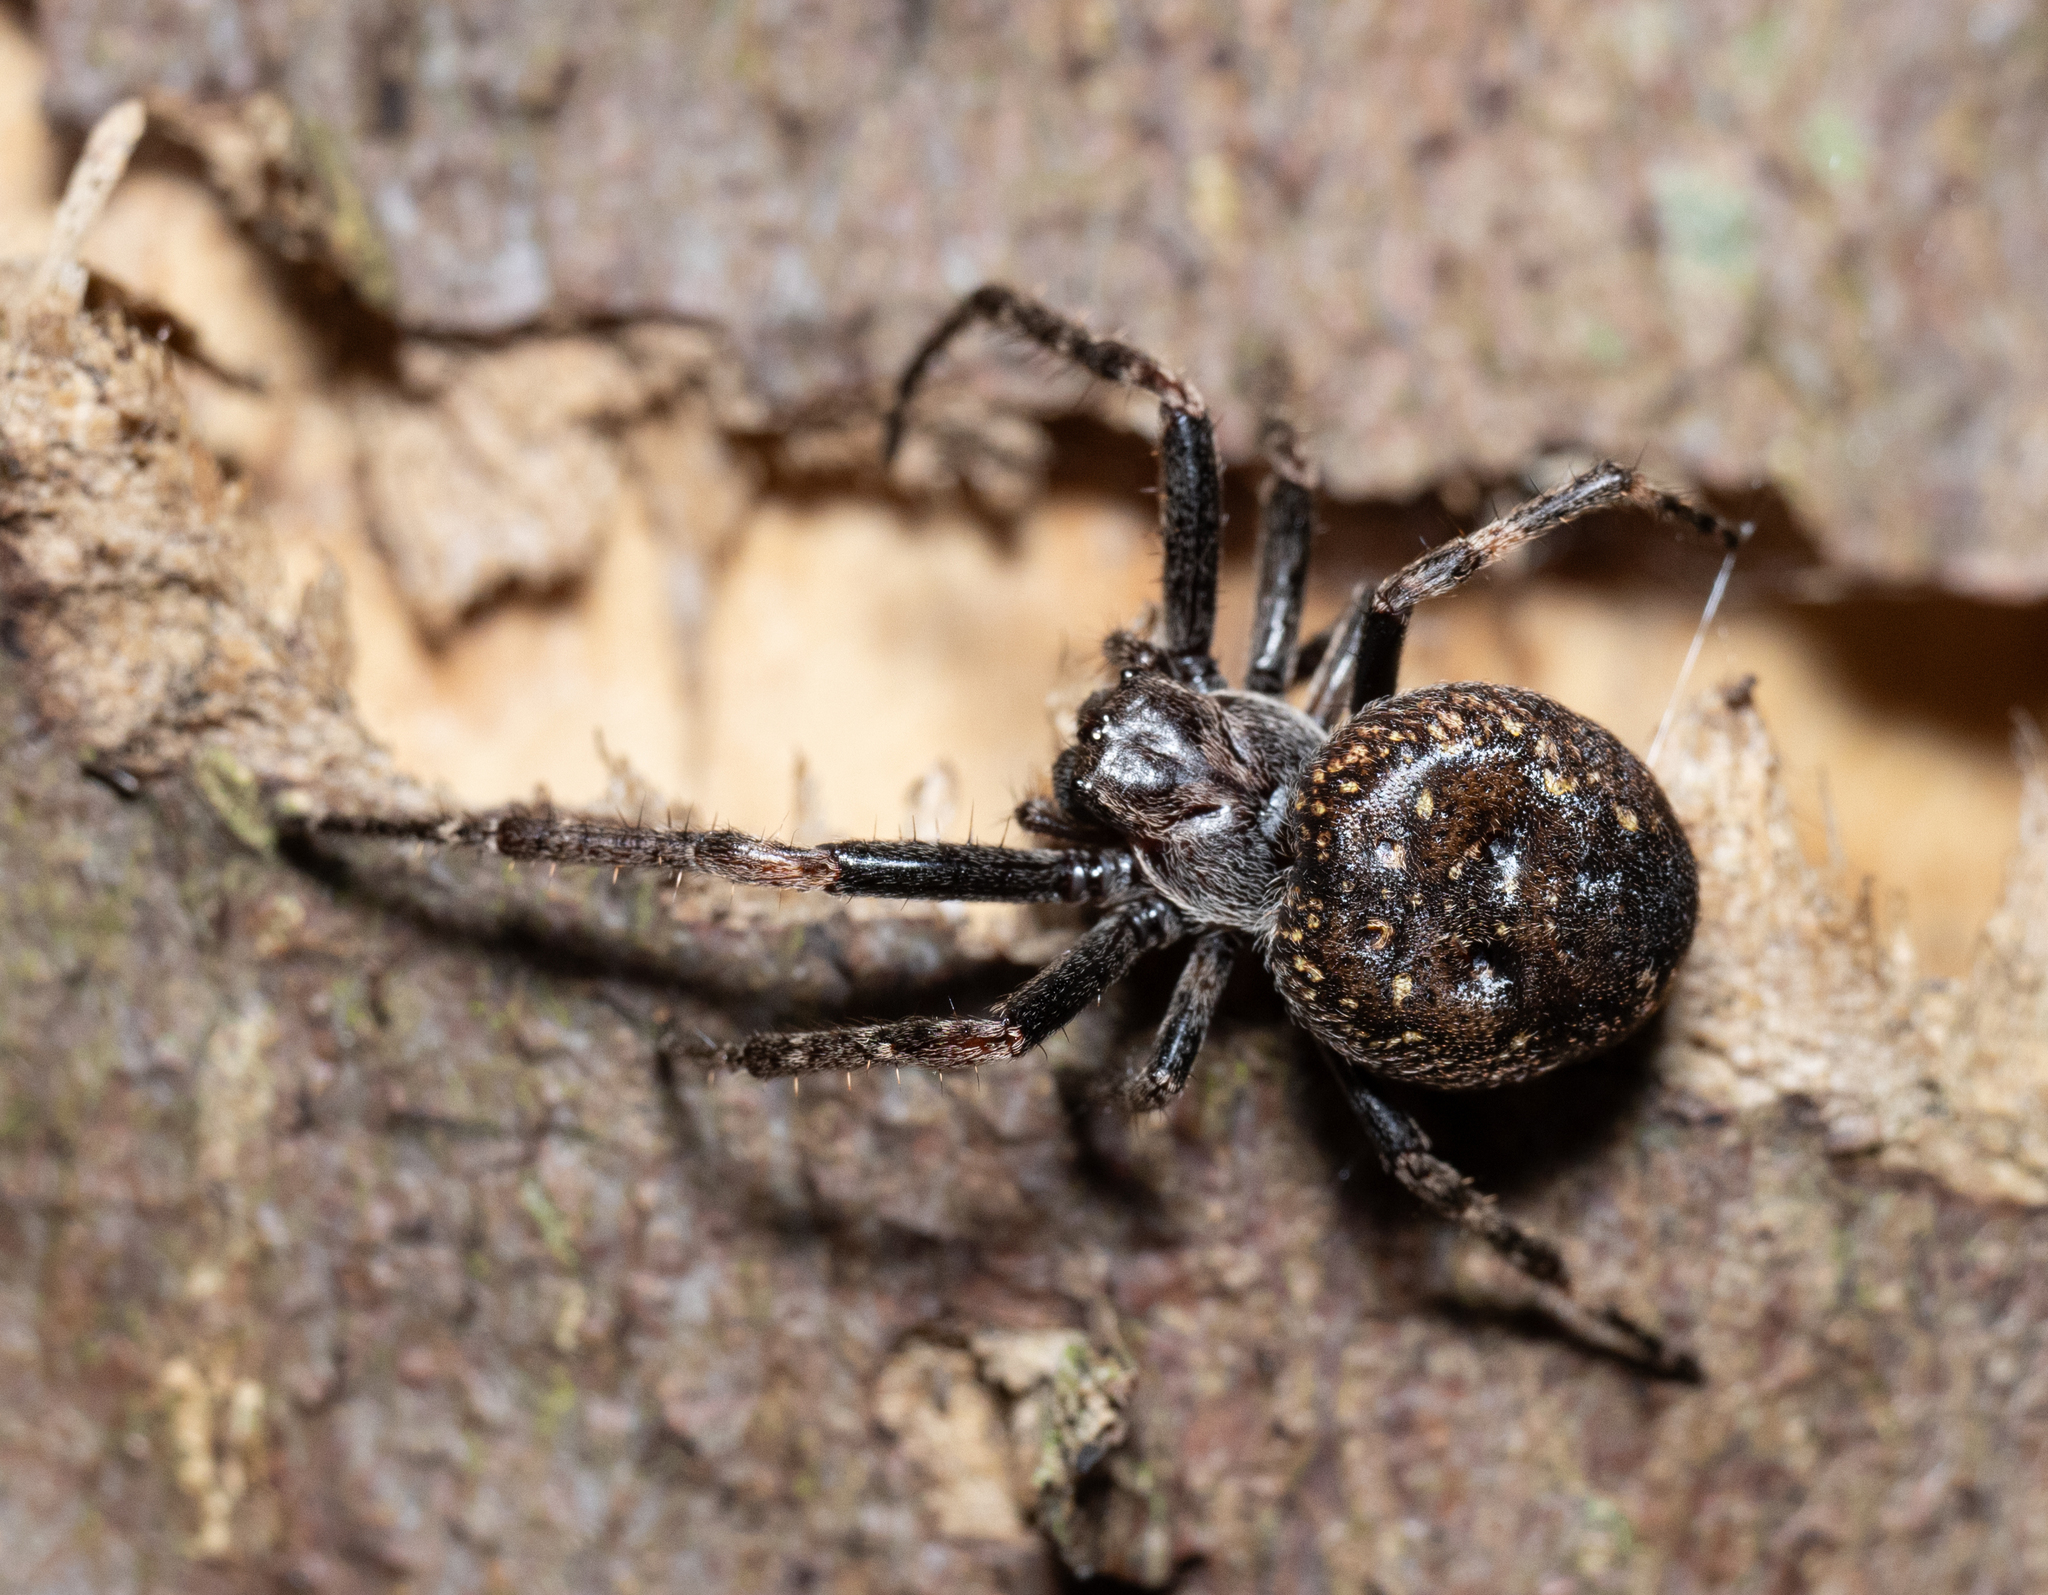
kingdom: Animalia
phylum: Arthropoda
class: Arachnida
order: Araneae
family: Araneidae
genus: Nuctenea
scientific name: Nuctenea umbratica
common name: Toad spider
